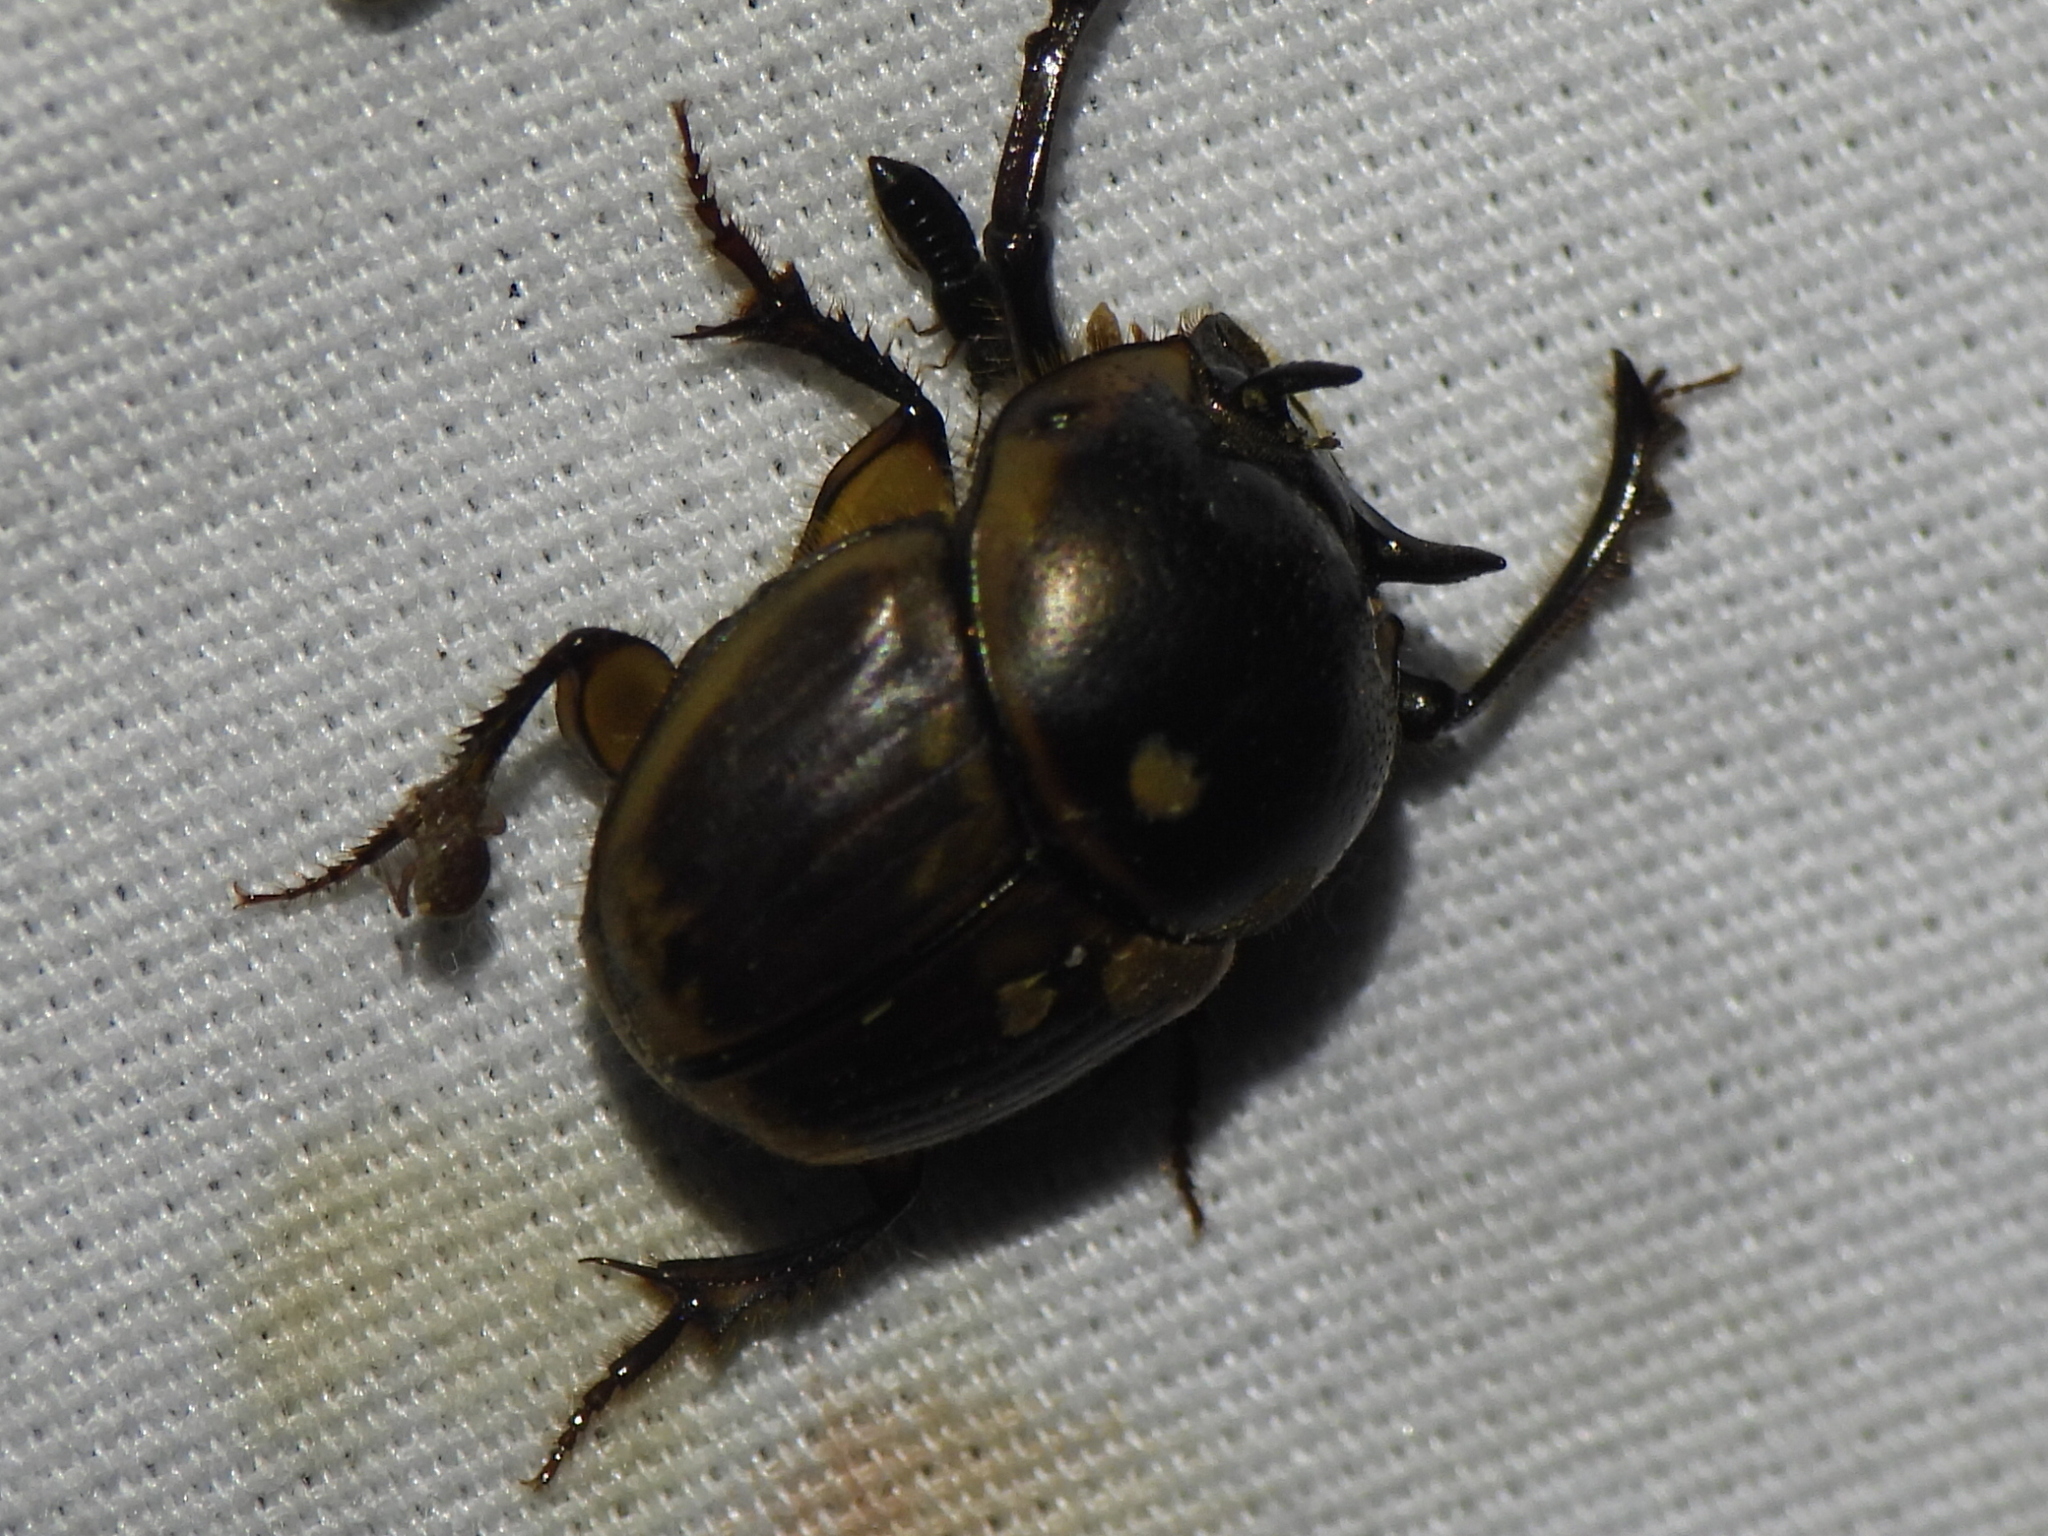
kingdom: Animalia
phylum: Arthropoda
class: Insecta
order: Coleoptera
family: Scarabaeidae
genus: Digitonthophagus
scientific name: Digitonthophagus gazella
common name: Brown dung beetle
